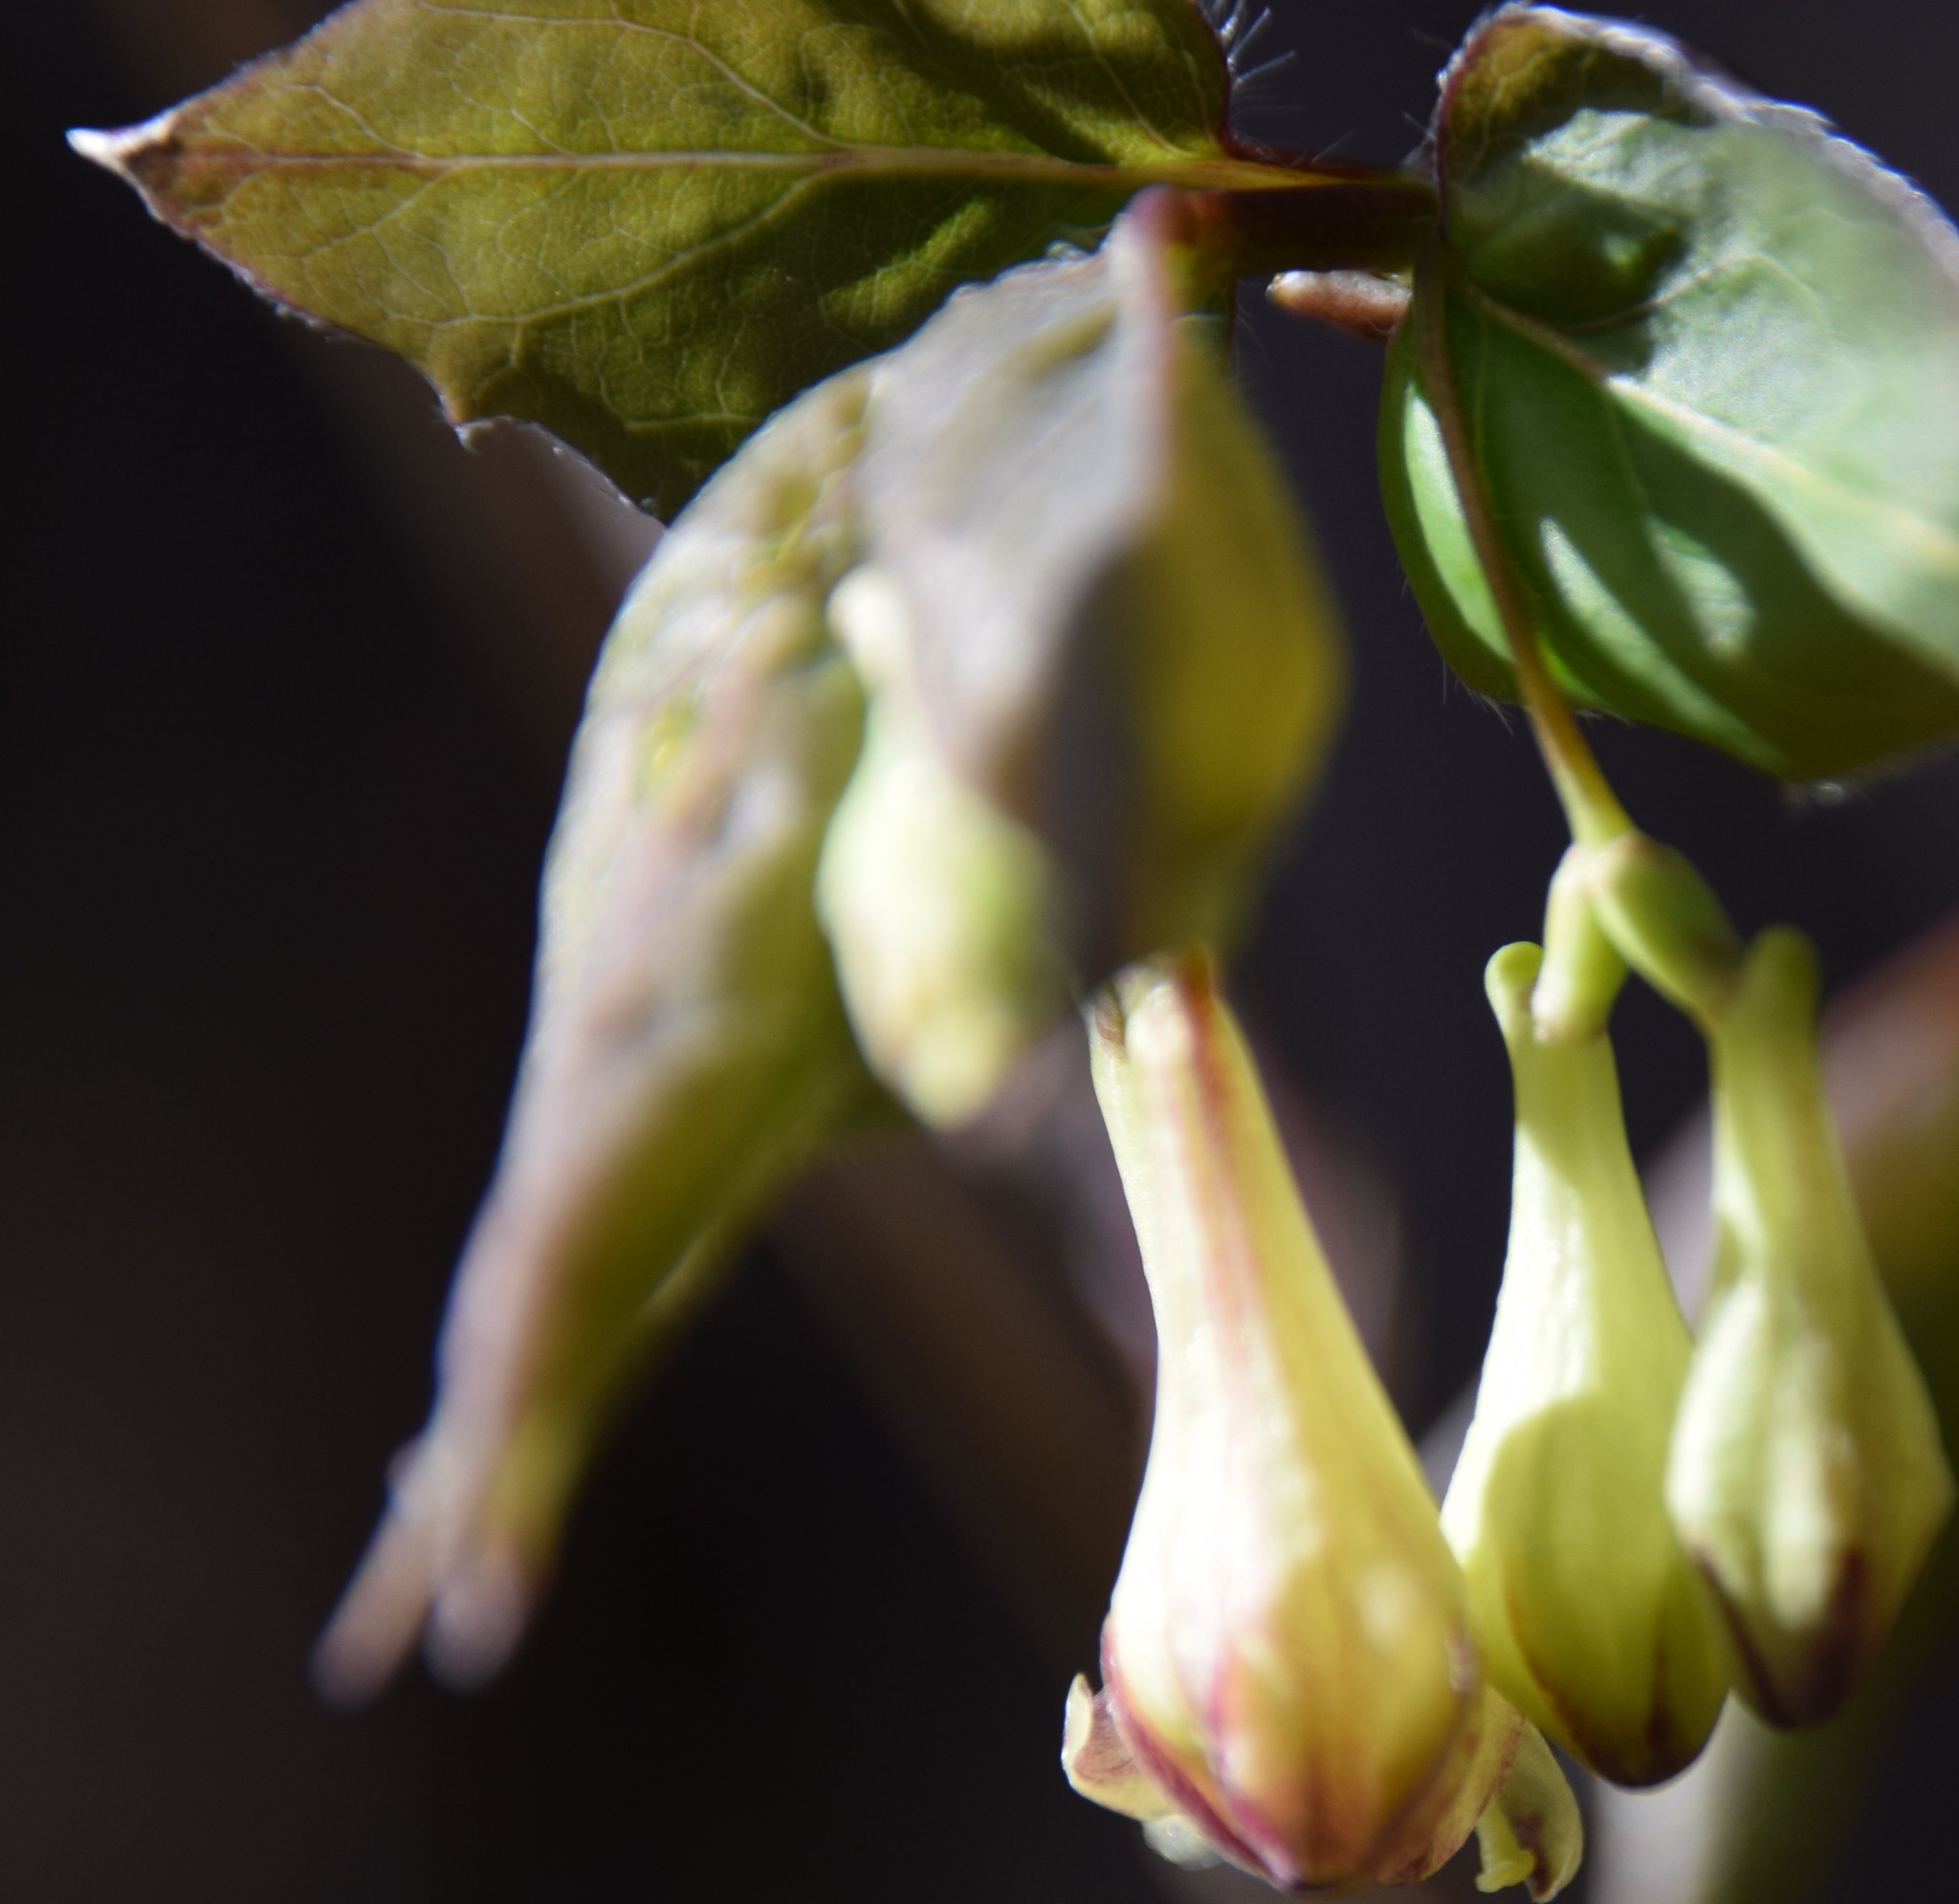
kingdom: Plantae
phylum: Tracheophyta
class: Magnoliopsida
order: Dipsacales
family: Caprifoliaceae
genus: Lonicera
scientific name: Lonicera canadensis
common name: American fly-honeysuckle
